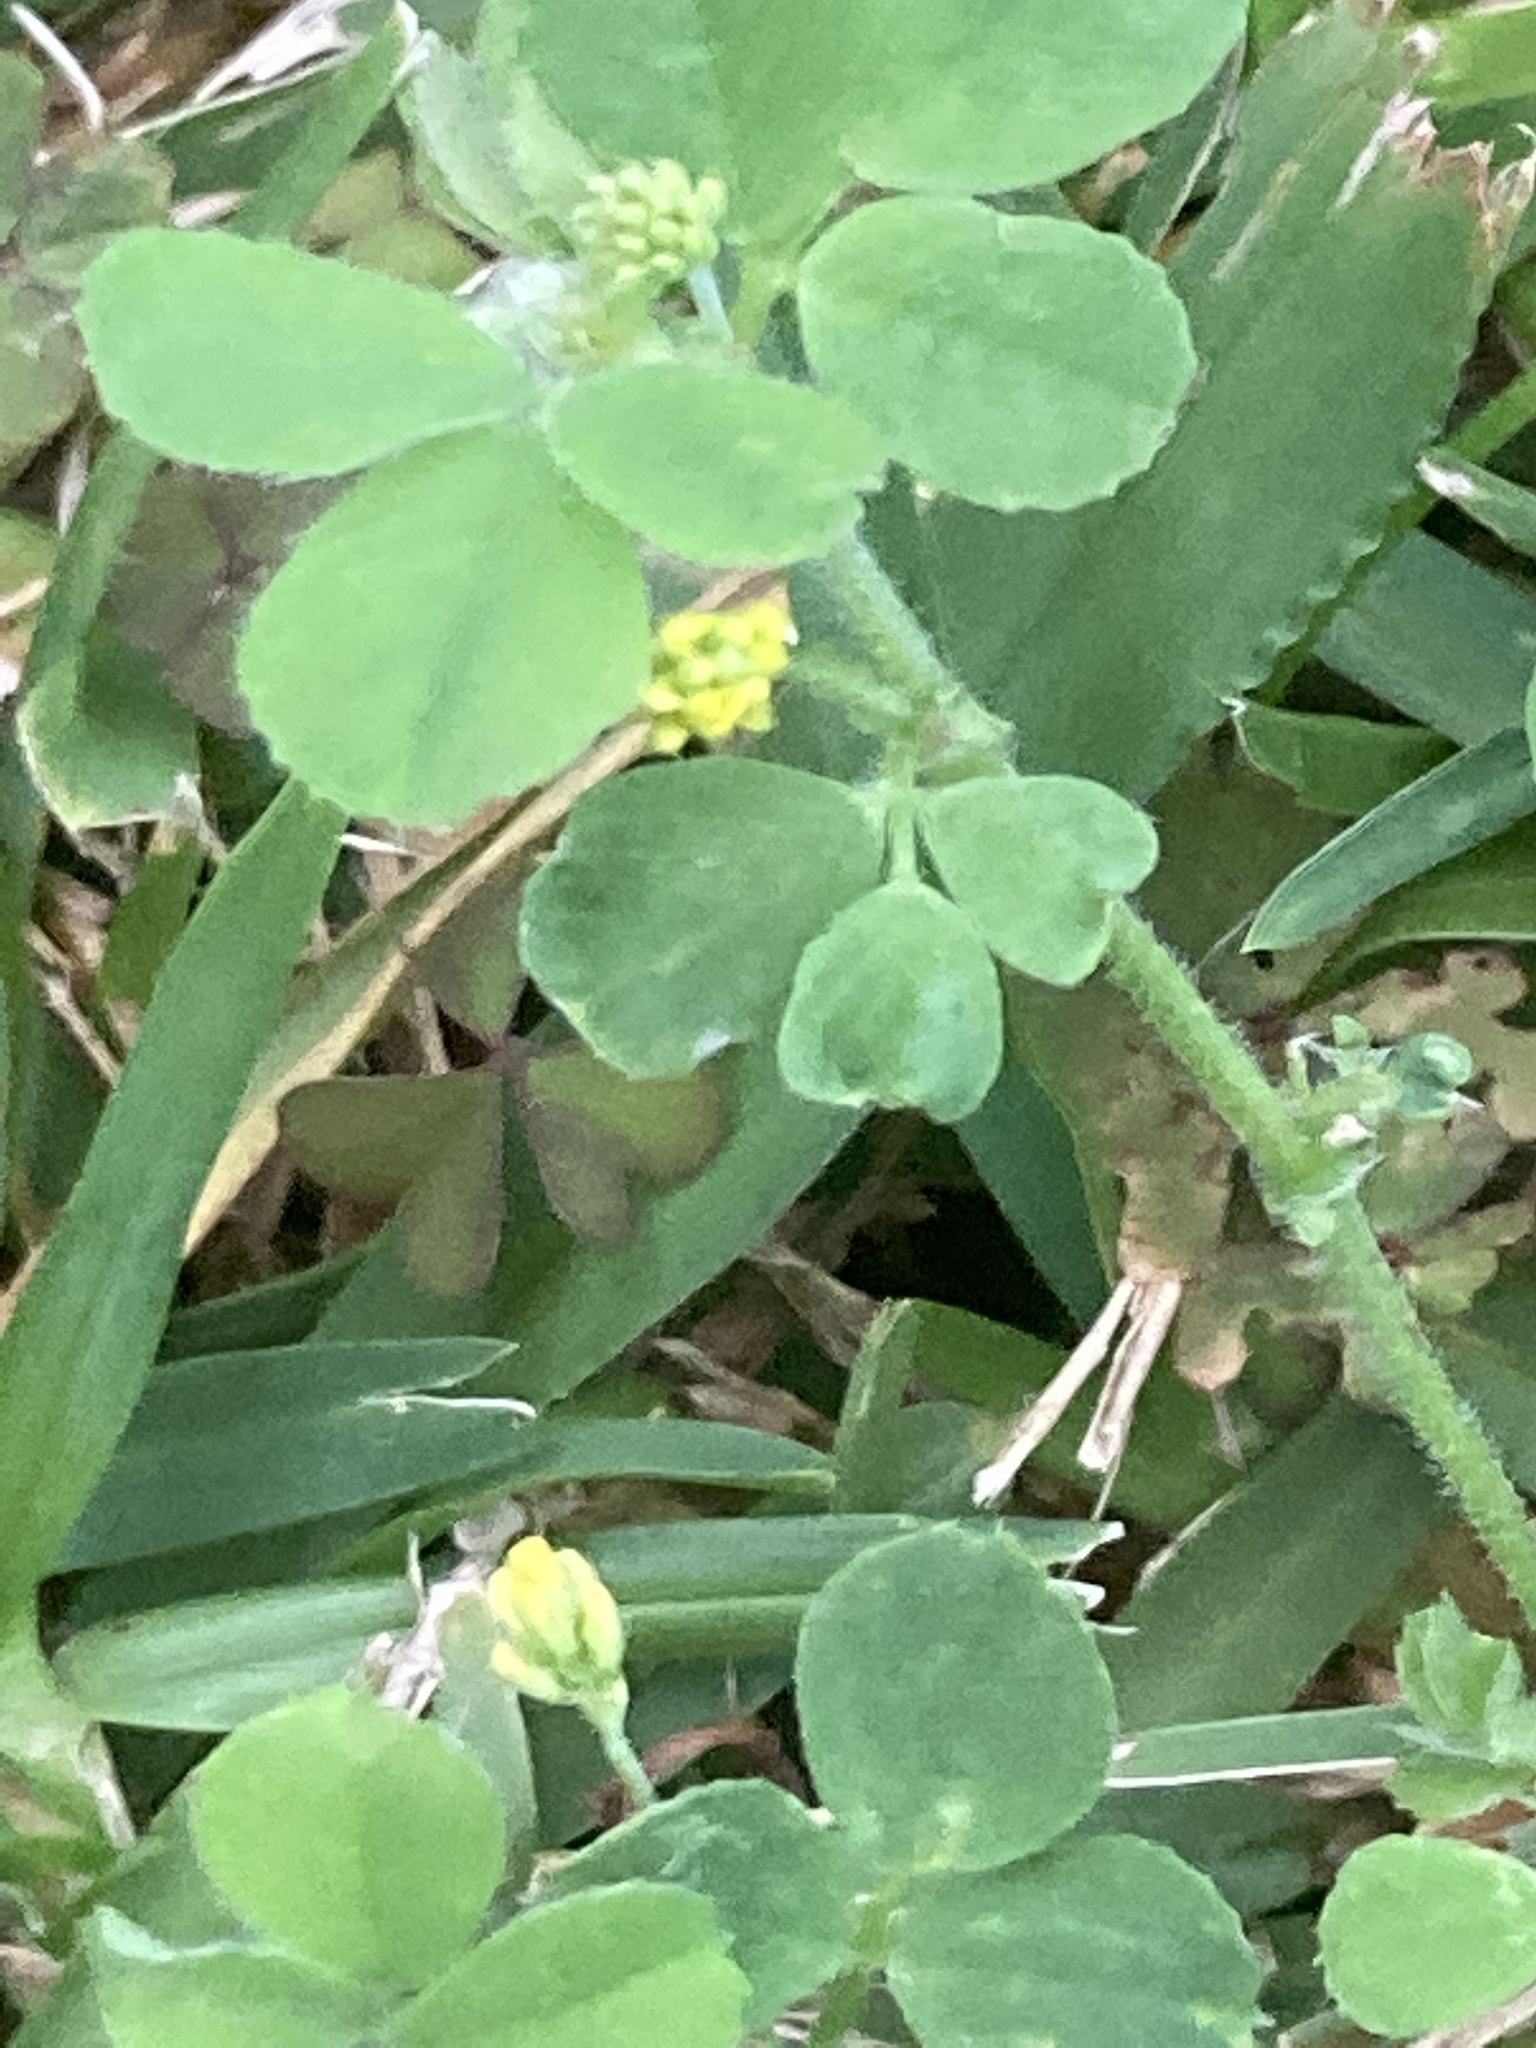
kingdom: Plantae
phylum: Tracheophyta
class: Magnoliopsida
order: Fabales
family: Fabaceae
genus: Medicago
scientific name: Medicago lupulina
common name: Black medick
